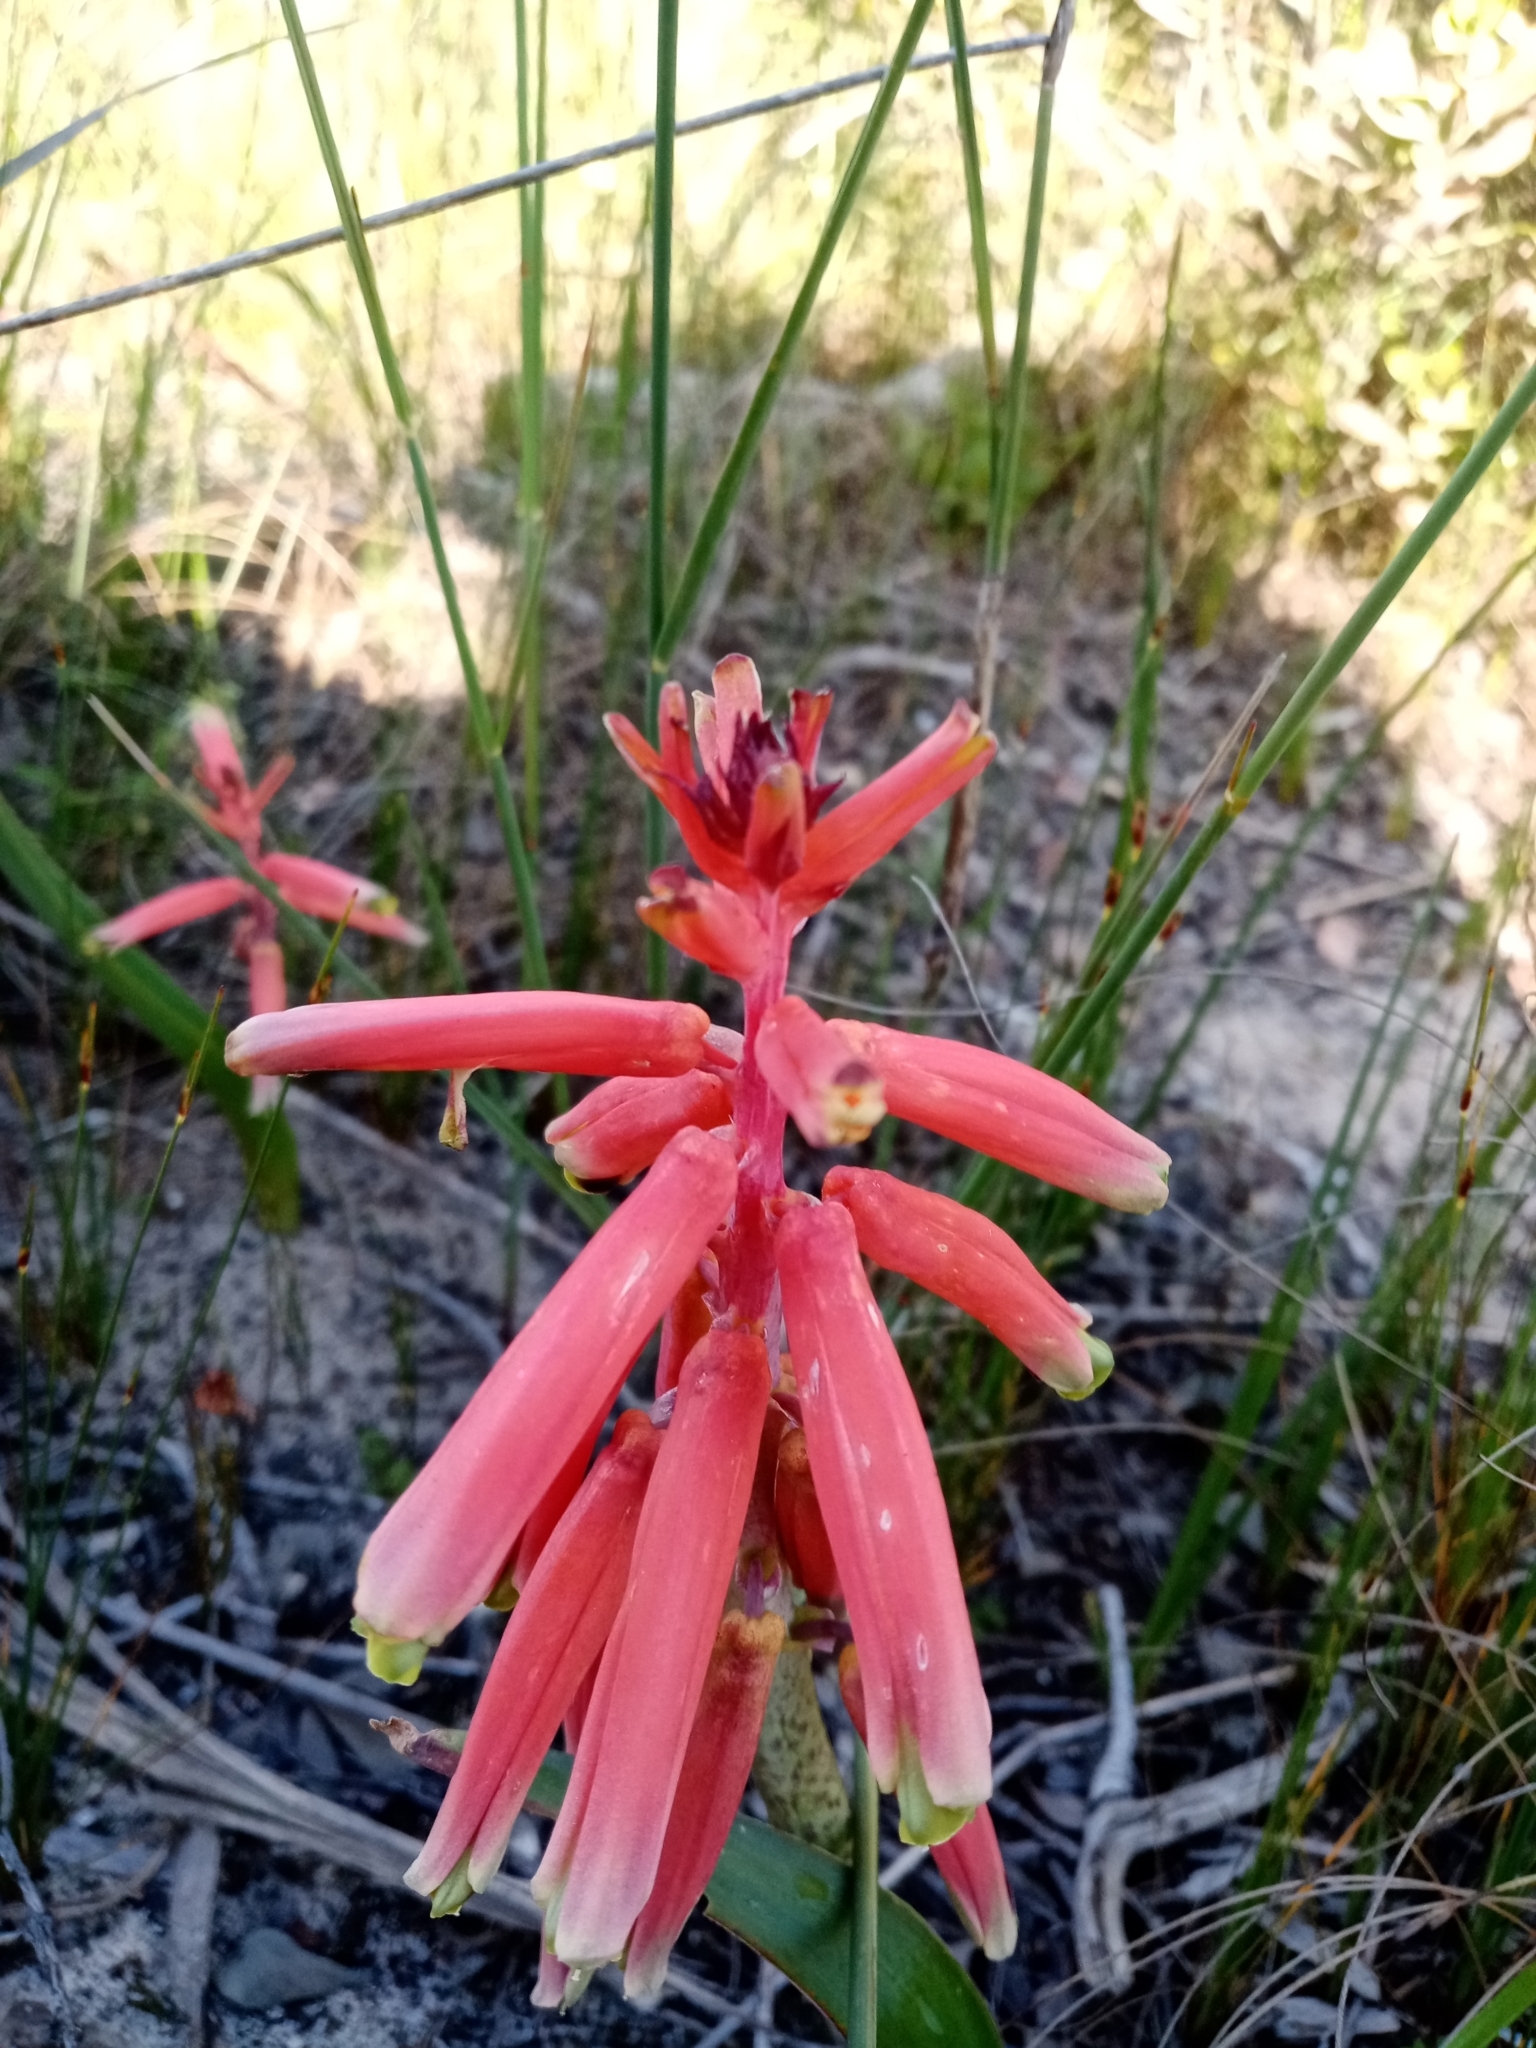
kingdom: Plantae
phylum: Tracheophyta
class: Liliopsida
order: Asparagales
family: Asparagaceae
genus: Lachenalia
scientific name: Lachenalia bulbifera
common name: Red lachenalia
